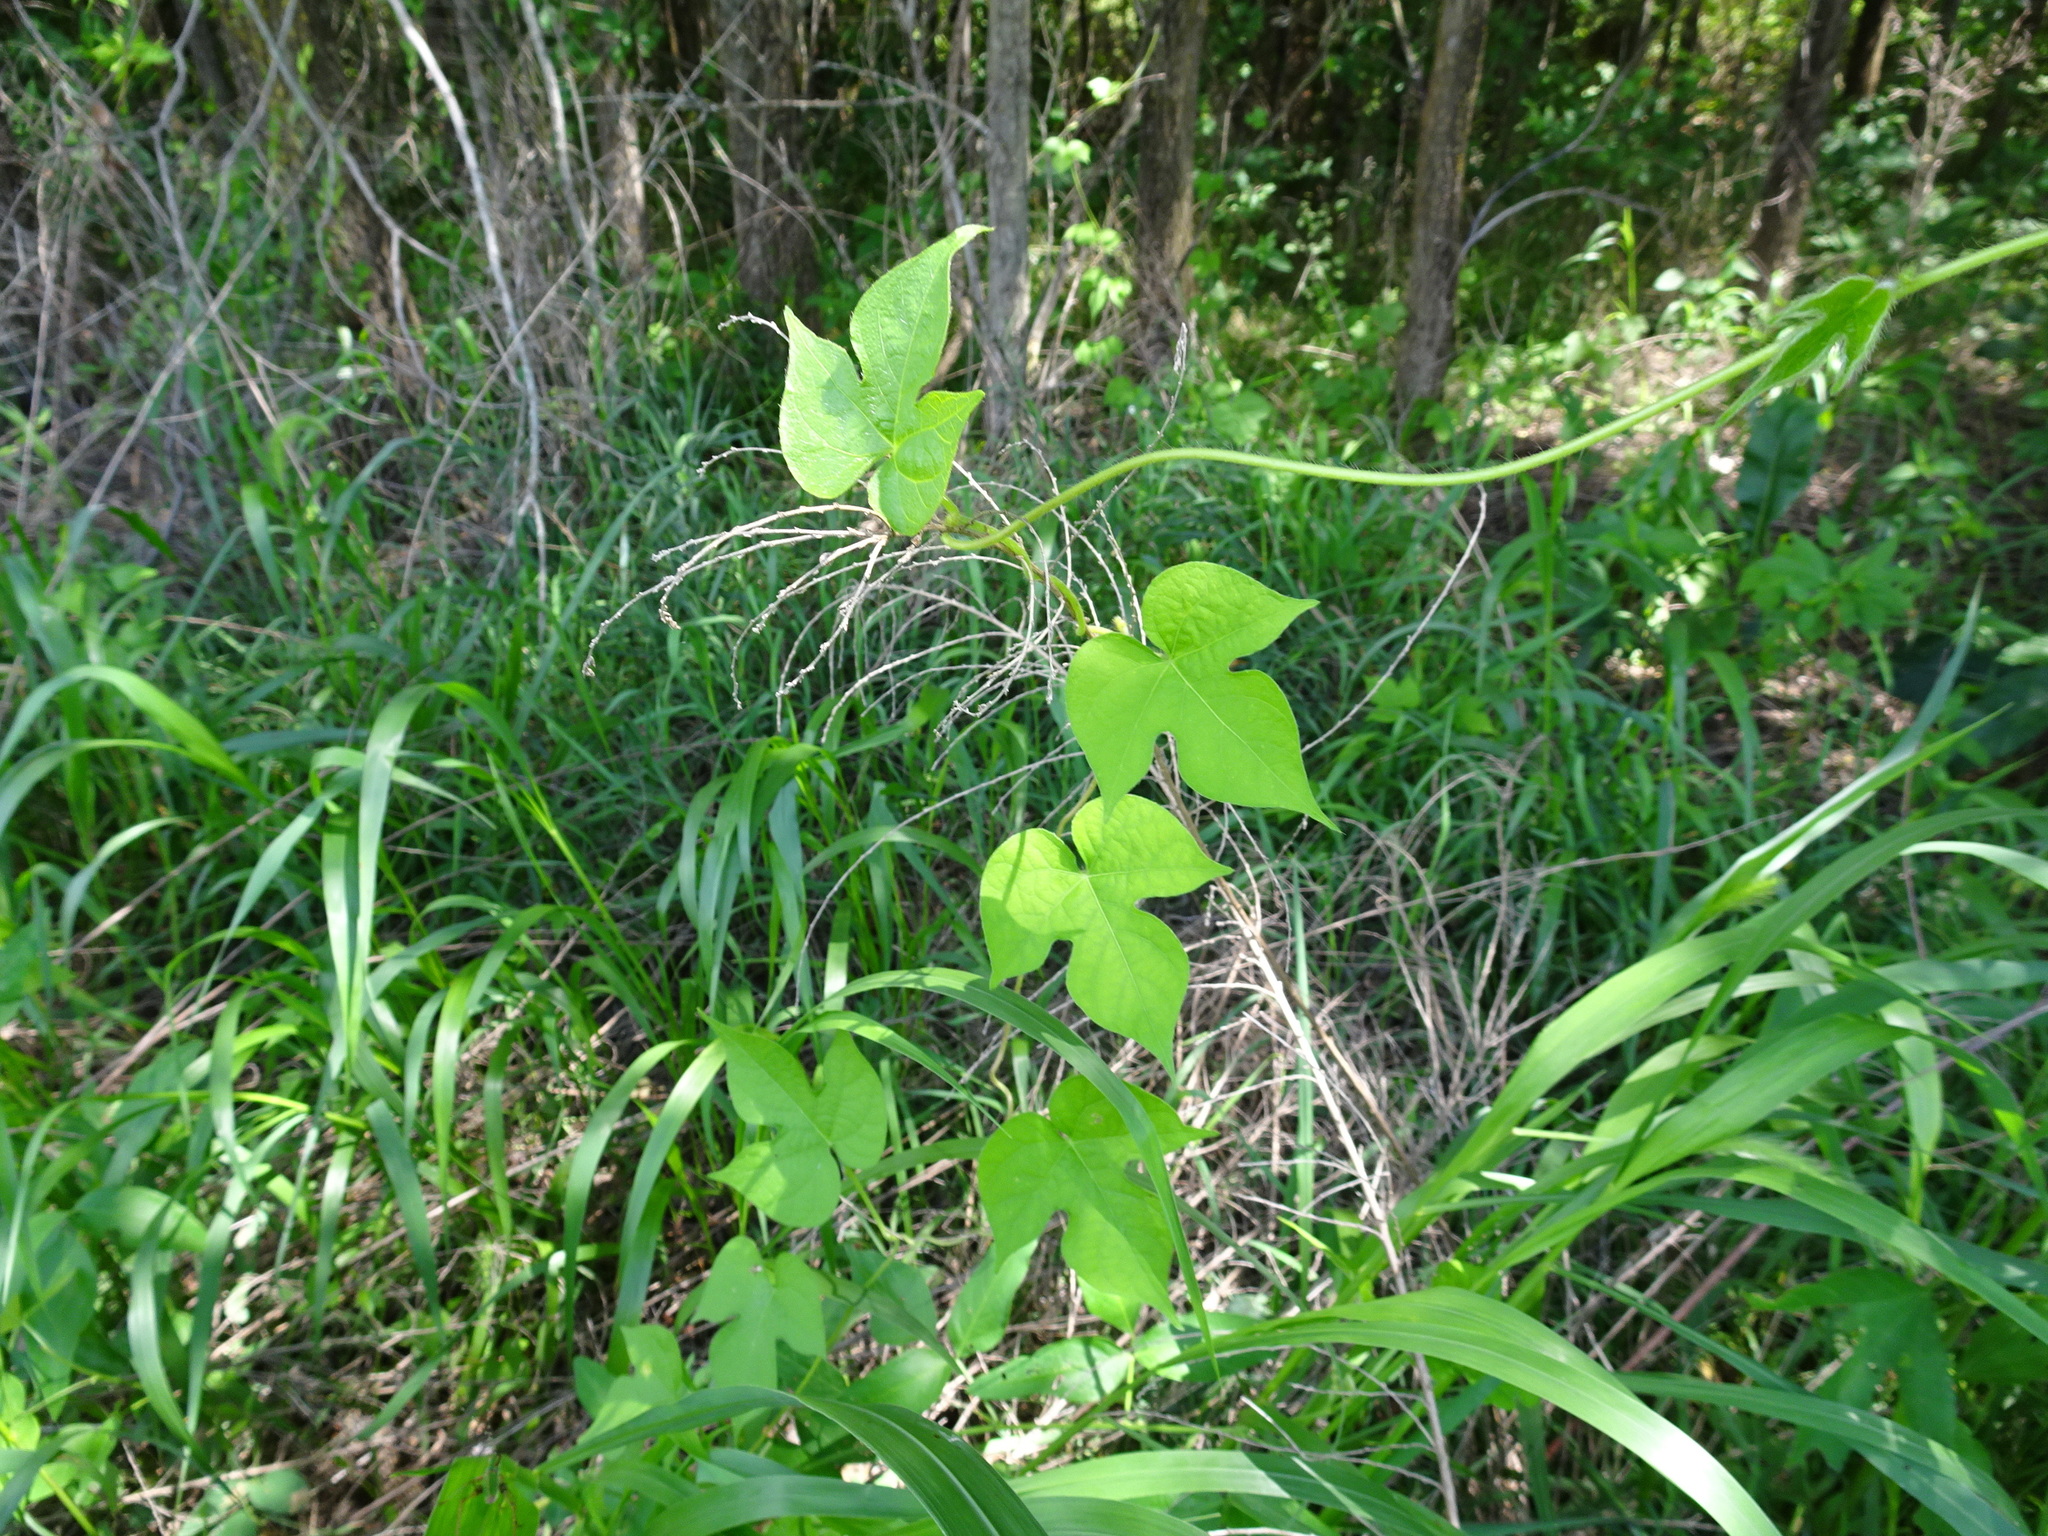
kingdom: Plantae
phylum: Tracheophyta
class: Magnoliopsida
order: Solanales
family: Convolvulaceae
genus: Ipomoea
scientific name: Ipomoea hederacea
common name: Ivy-leaved morning-glory
